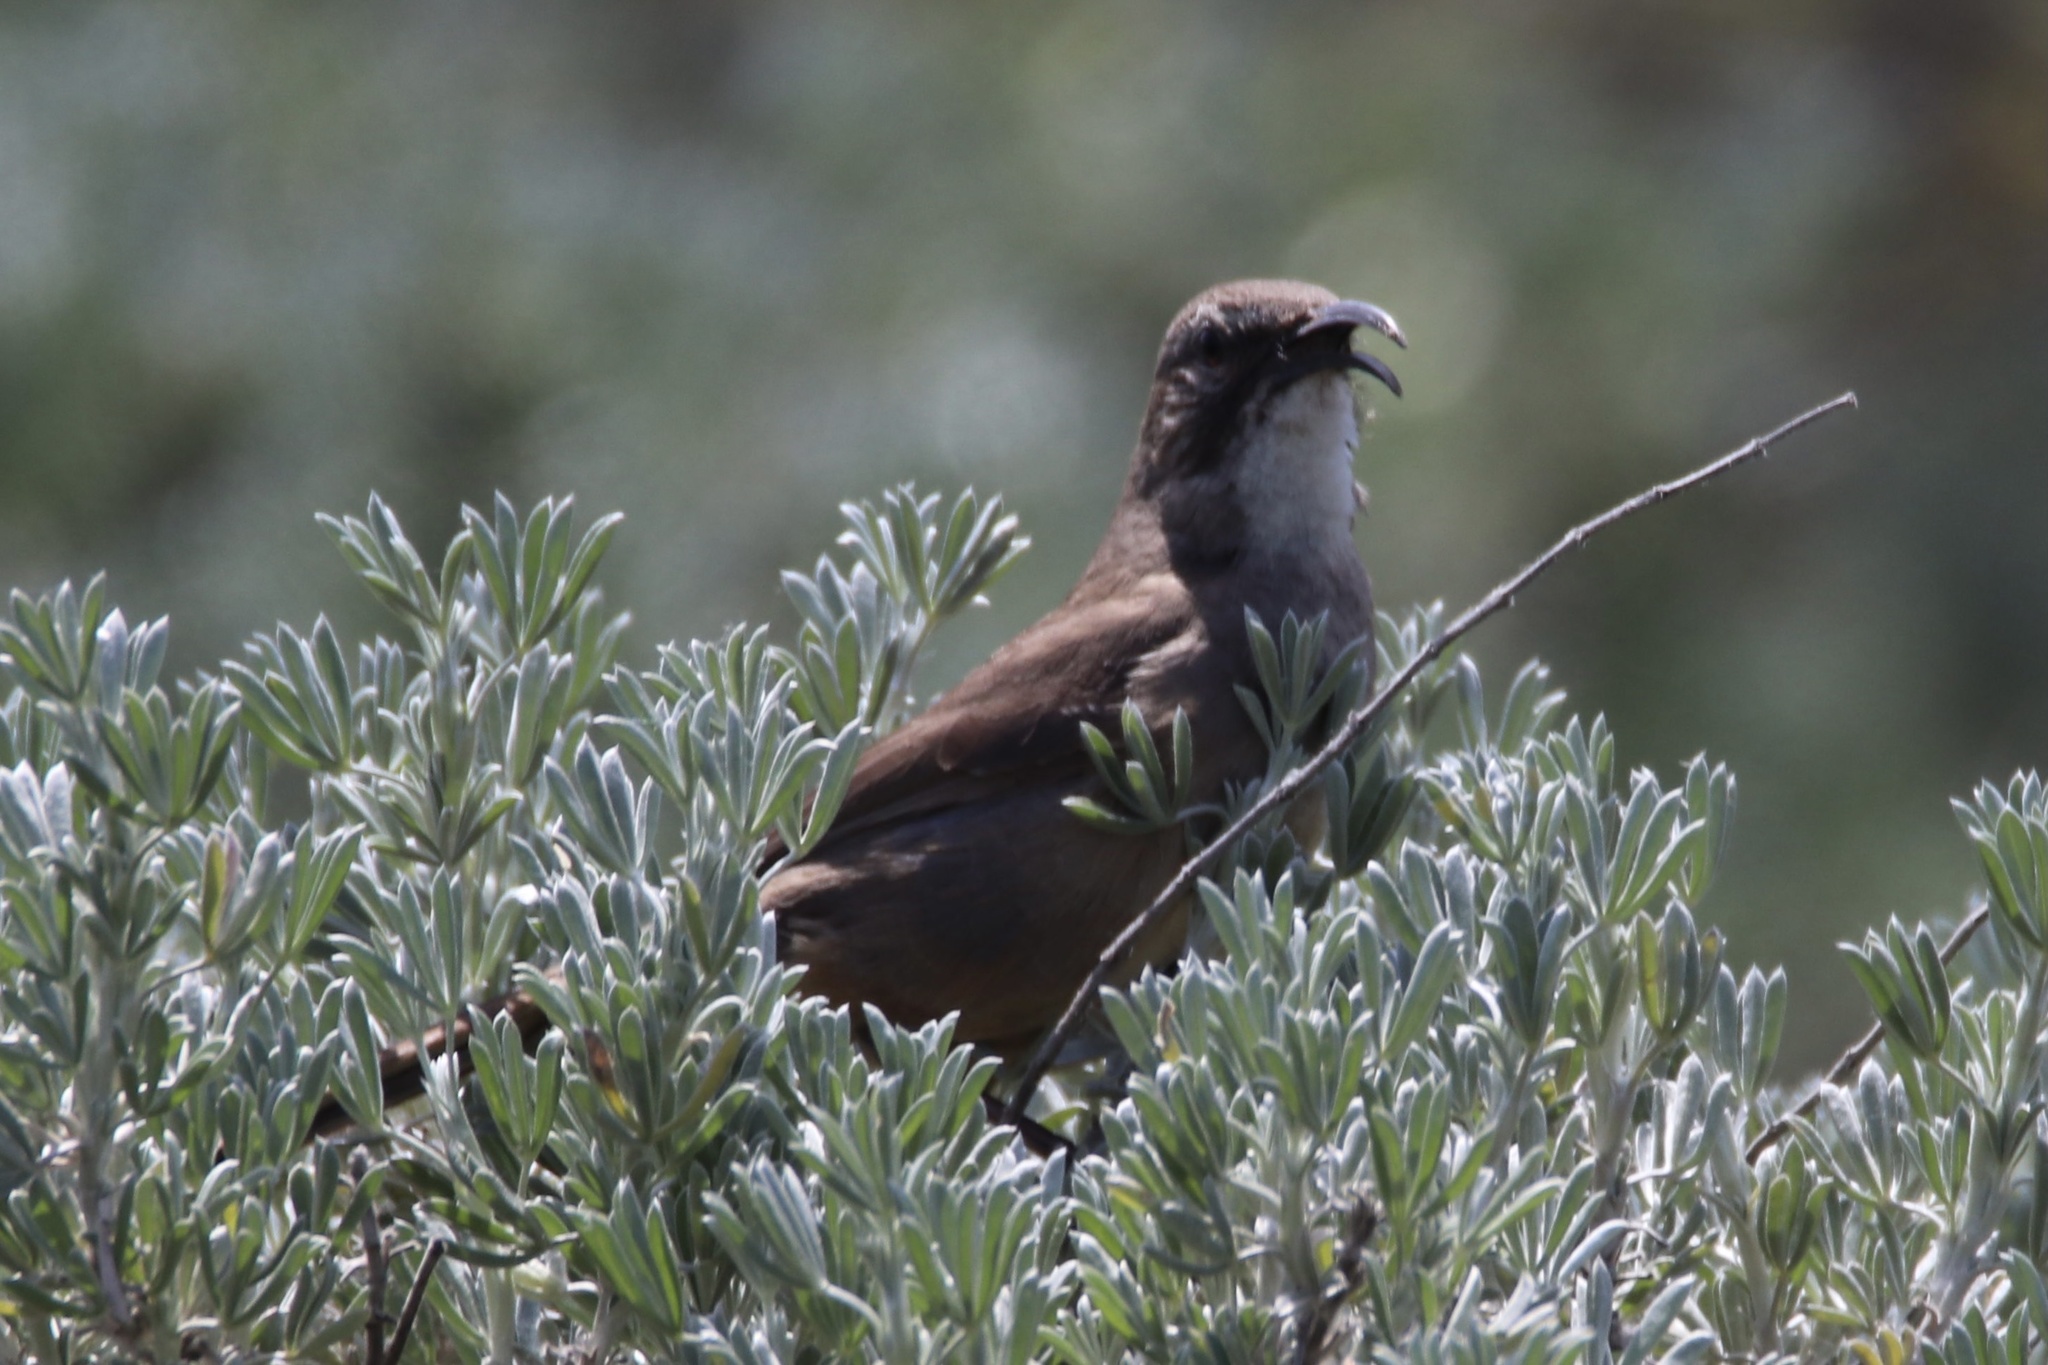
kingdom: Animalia
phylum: Chordata
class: Aves
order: Passeriformes
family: Mimidae
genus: Toxostoma
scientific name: Toxostoma redivivum
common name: California thrasher
